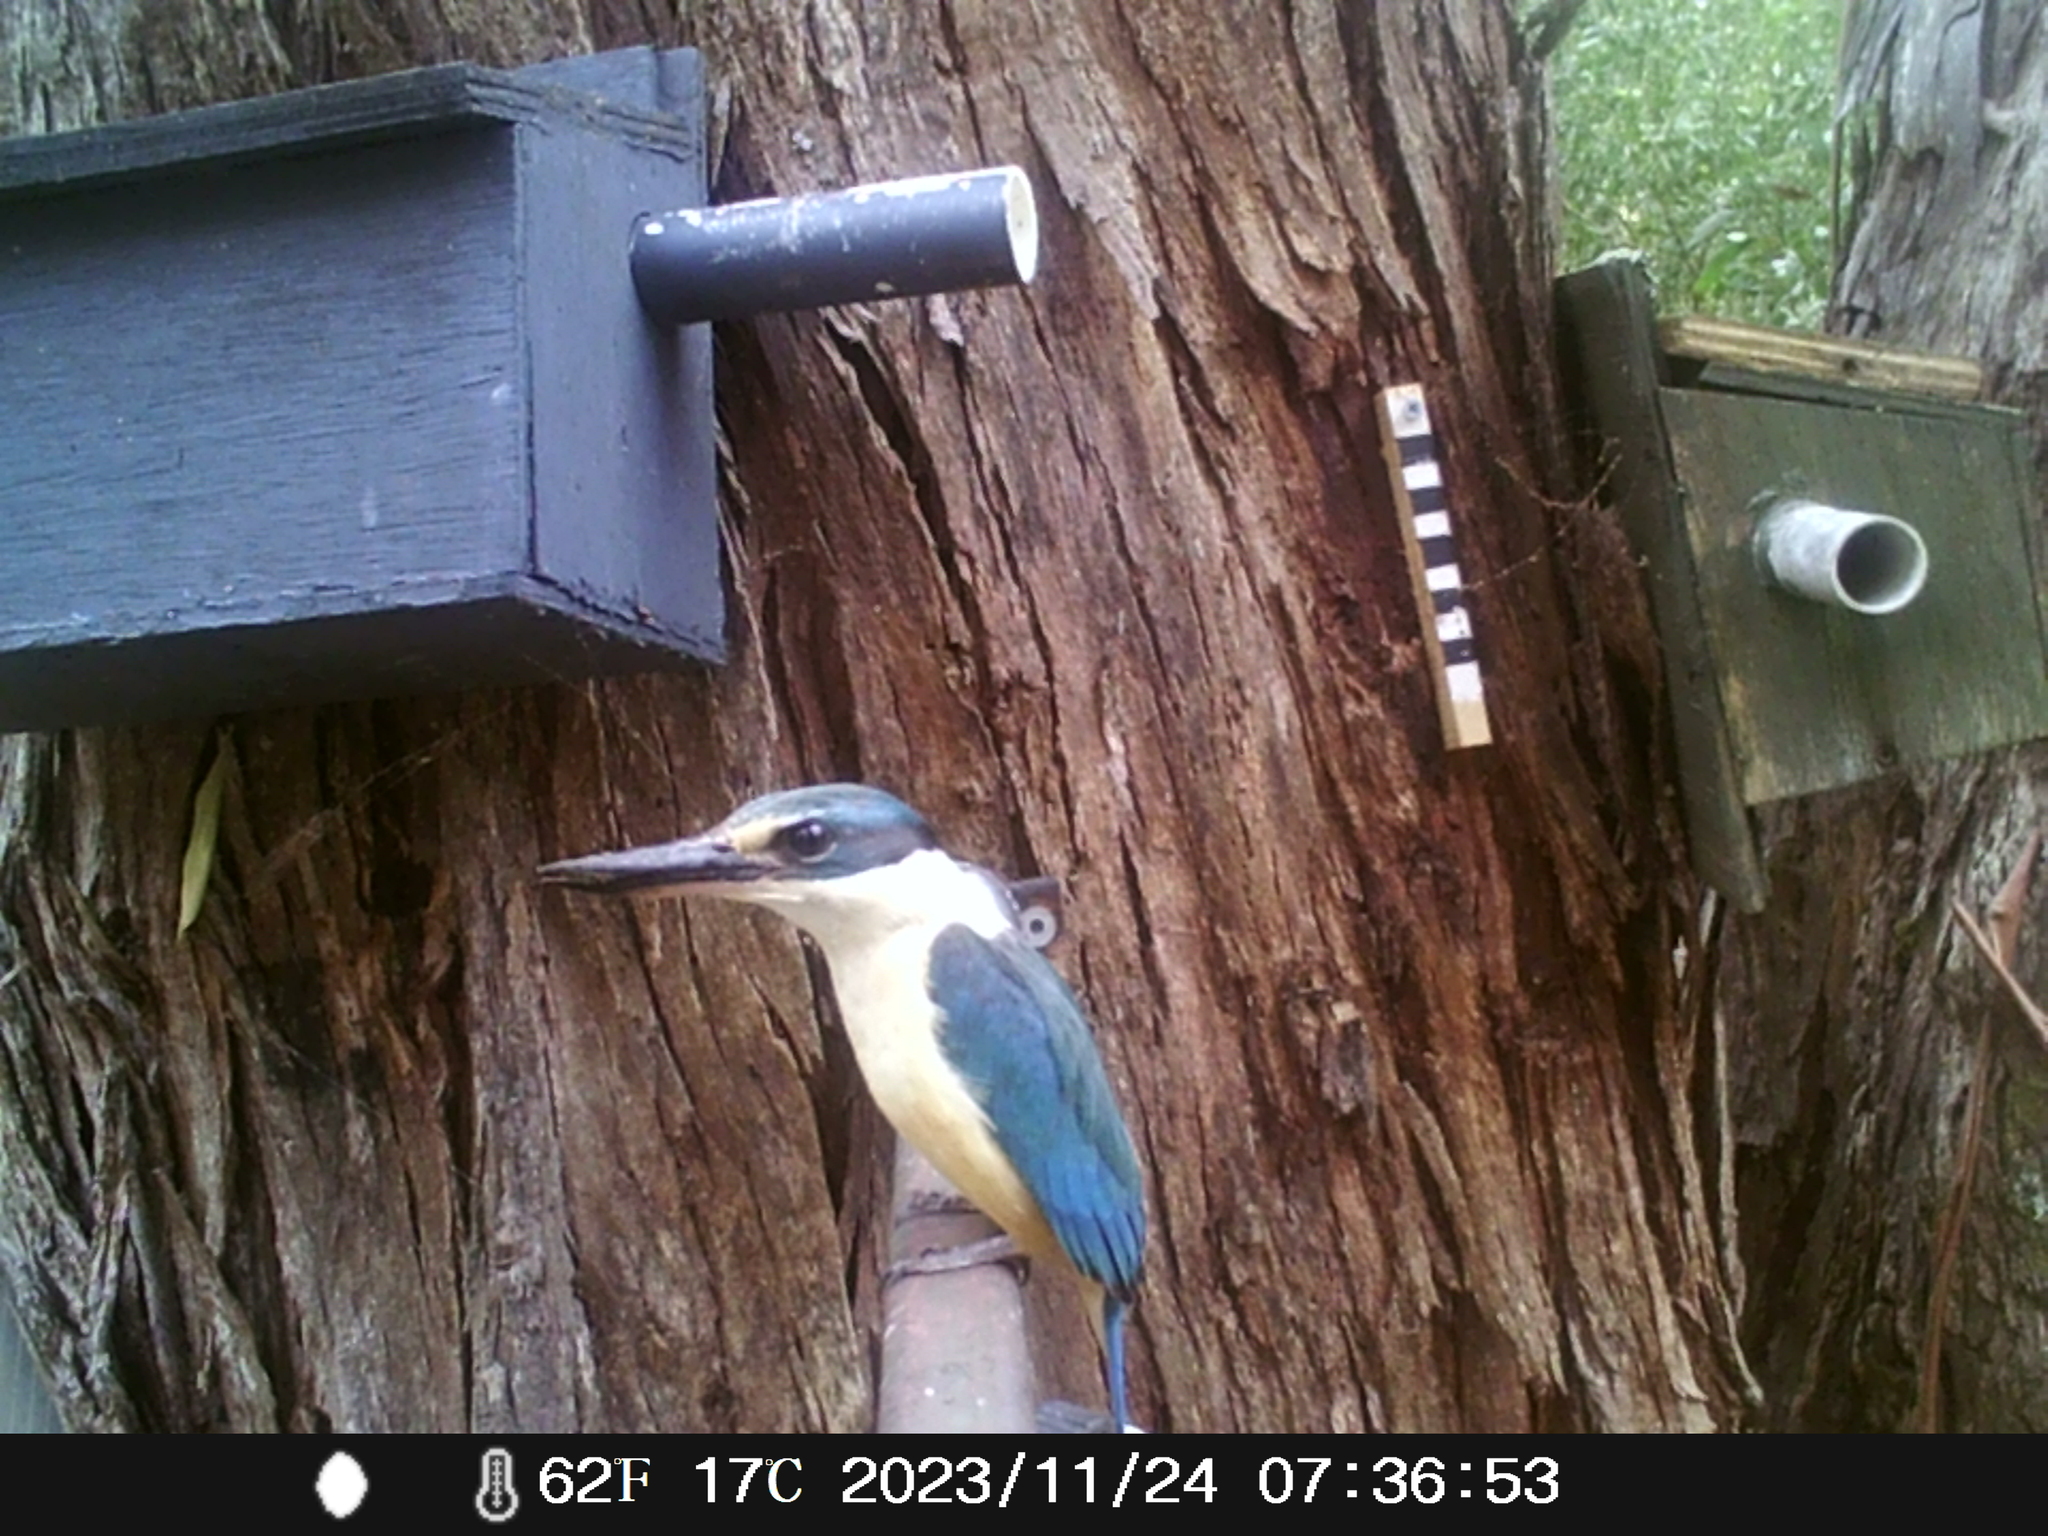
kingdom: Animalia
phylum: Chordata
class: Aves
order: Coraciiformes
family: Alcedinidae
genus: Todiramphus
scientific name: Todiramphus sanctus
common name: Sacred kingfisher
